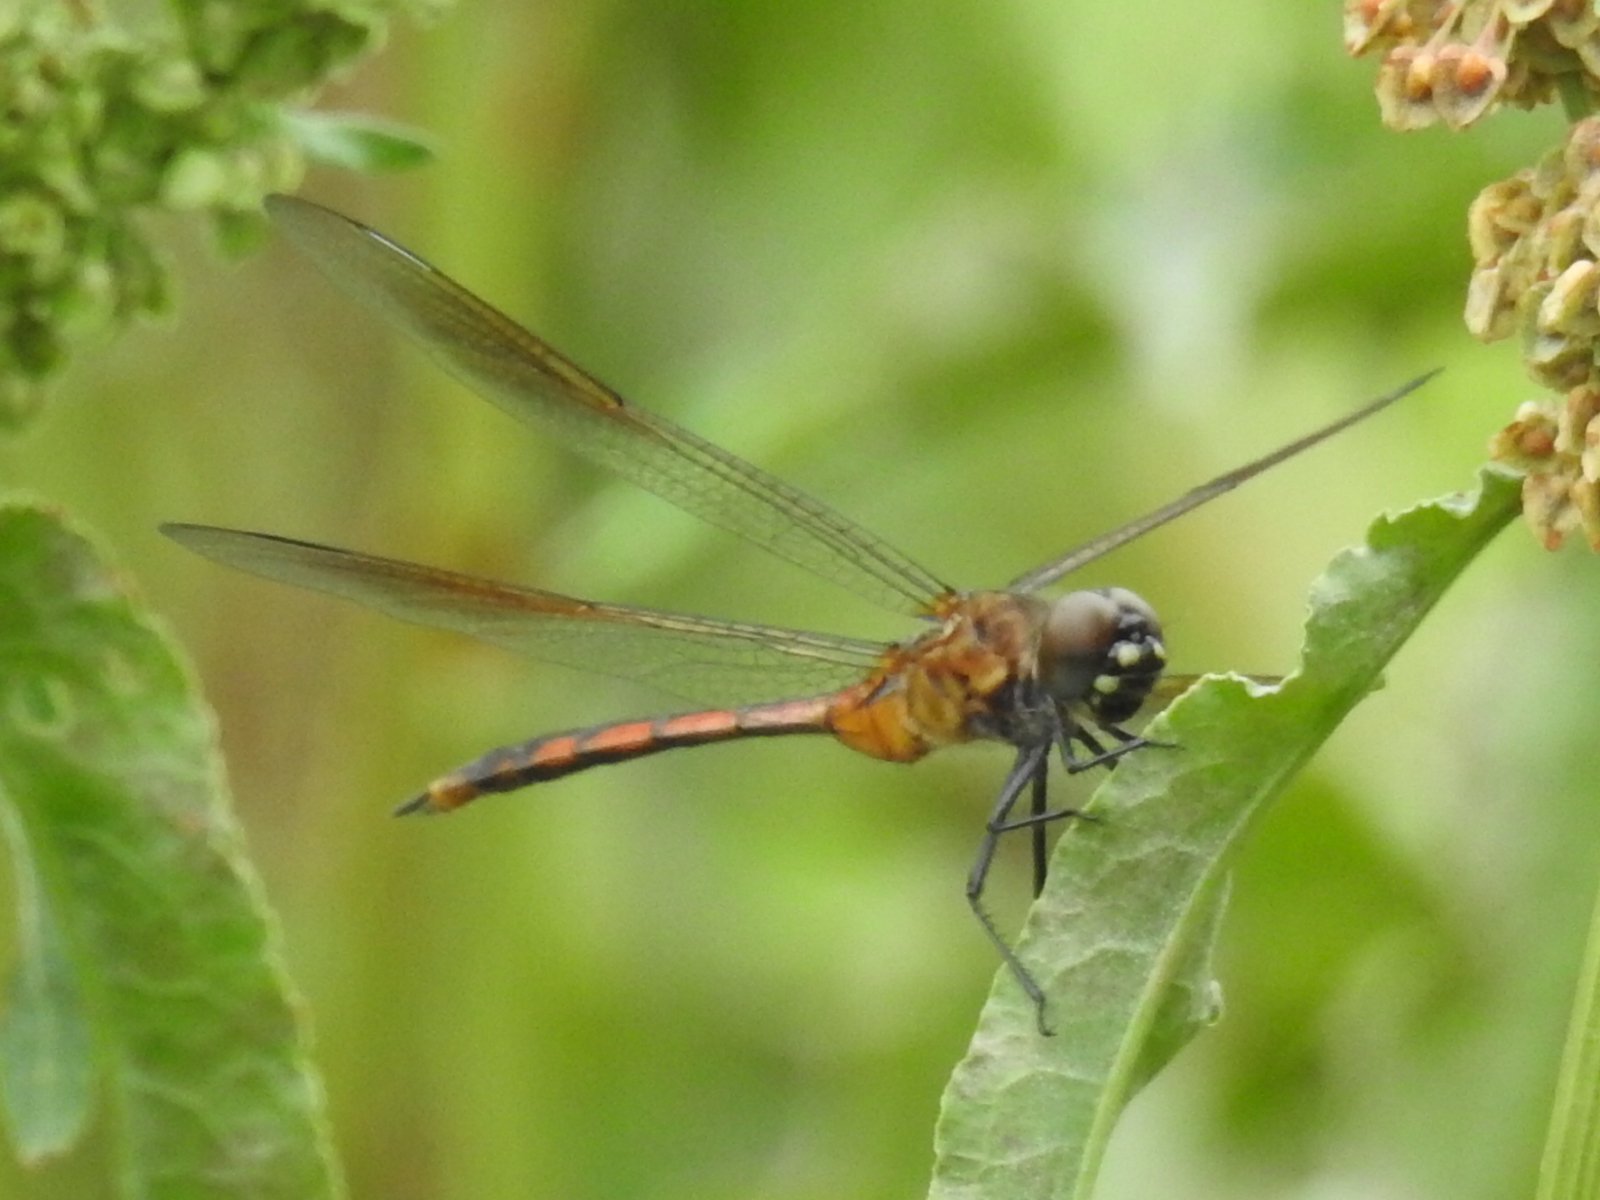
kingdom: Animalia
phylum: Arthropoda
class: Insecta
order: Odonata
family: Libellulidae
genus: Brachymesia
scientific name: Brachymesia gravida
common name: Four-spotted pennant
